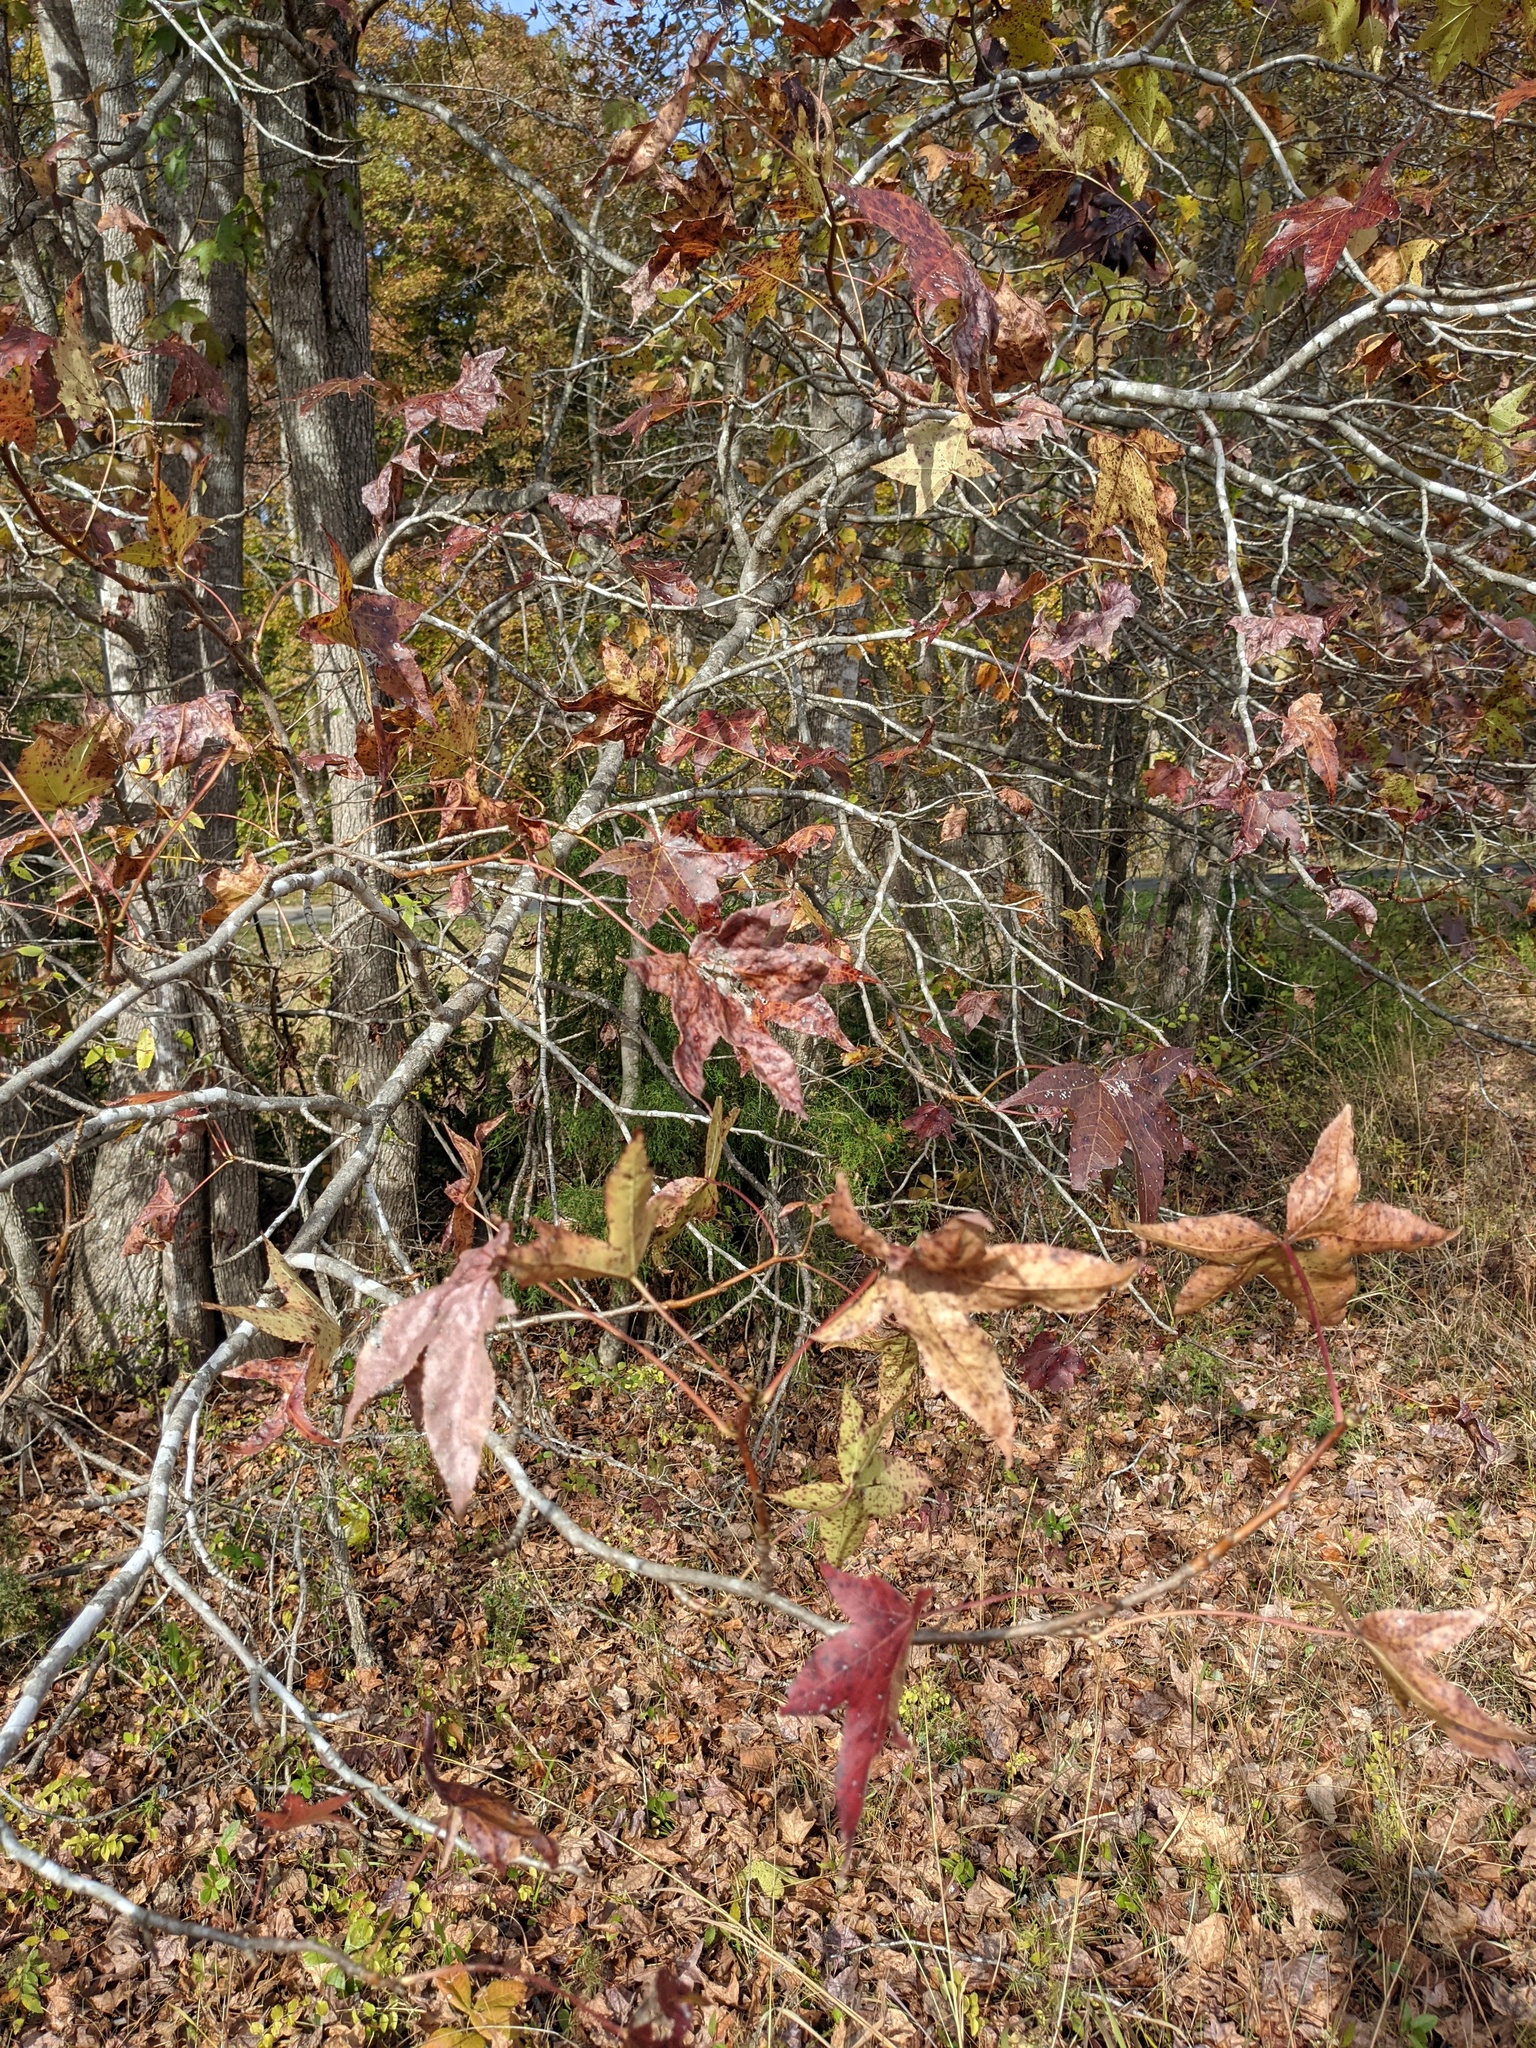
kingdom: Plantae
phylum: Tracheophyta
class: Magnoliopsida
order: Saxifragales
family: Altingiaceae
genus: Liquidambar
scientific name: Liquidambar styraciflua
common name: Sweet gum
